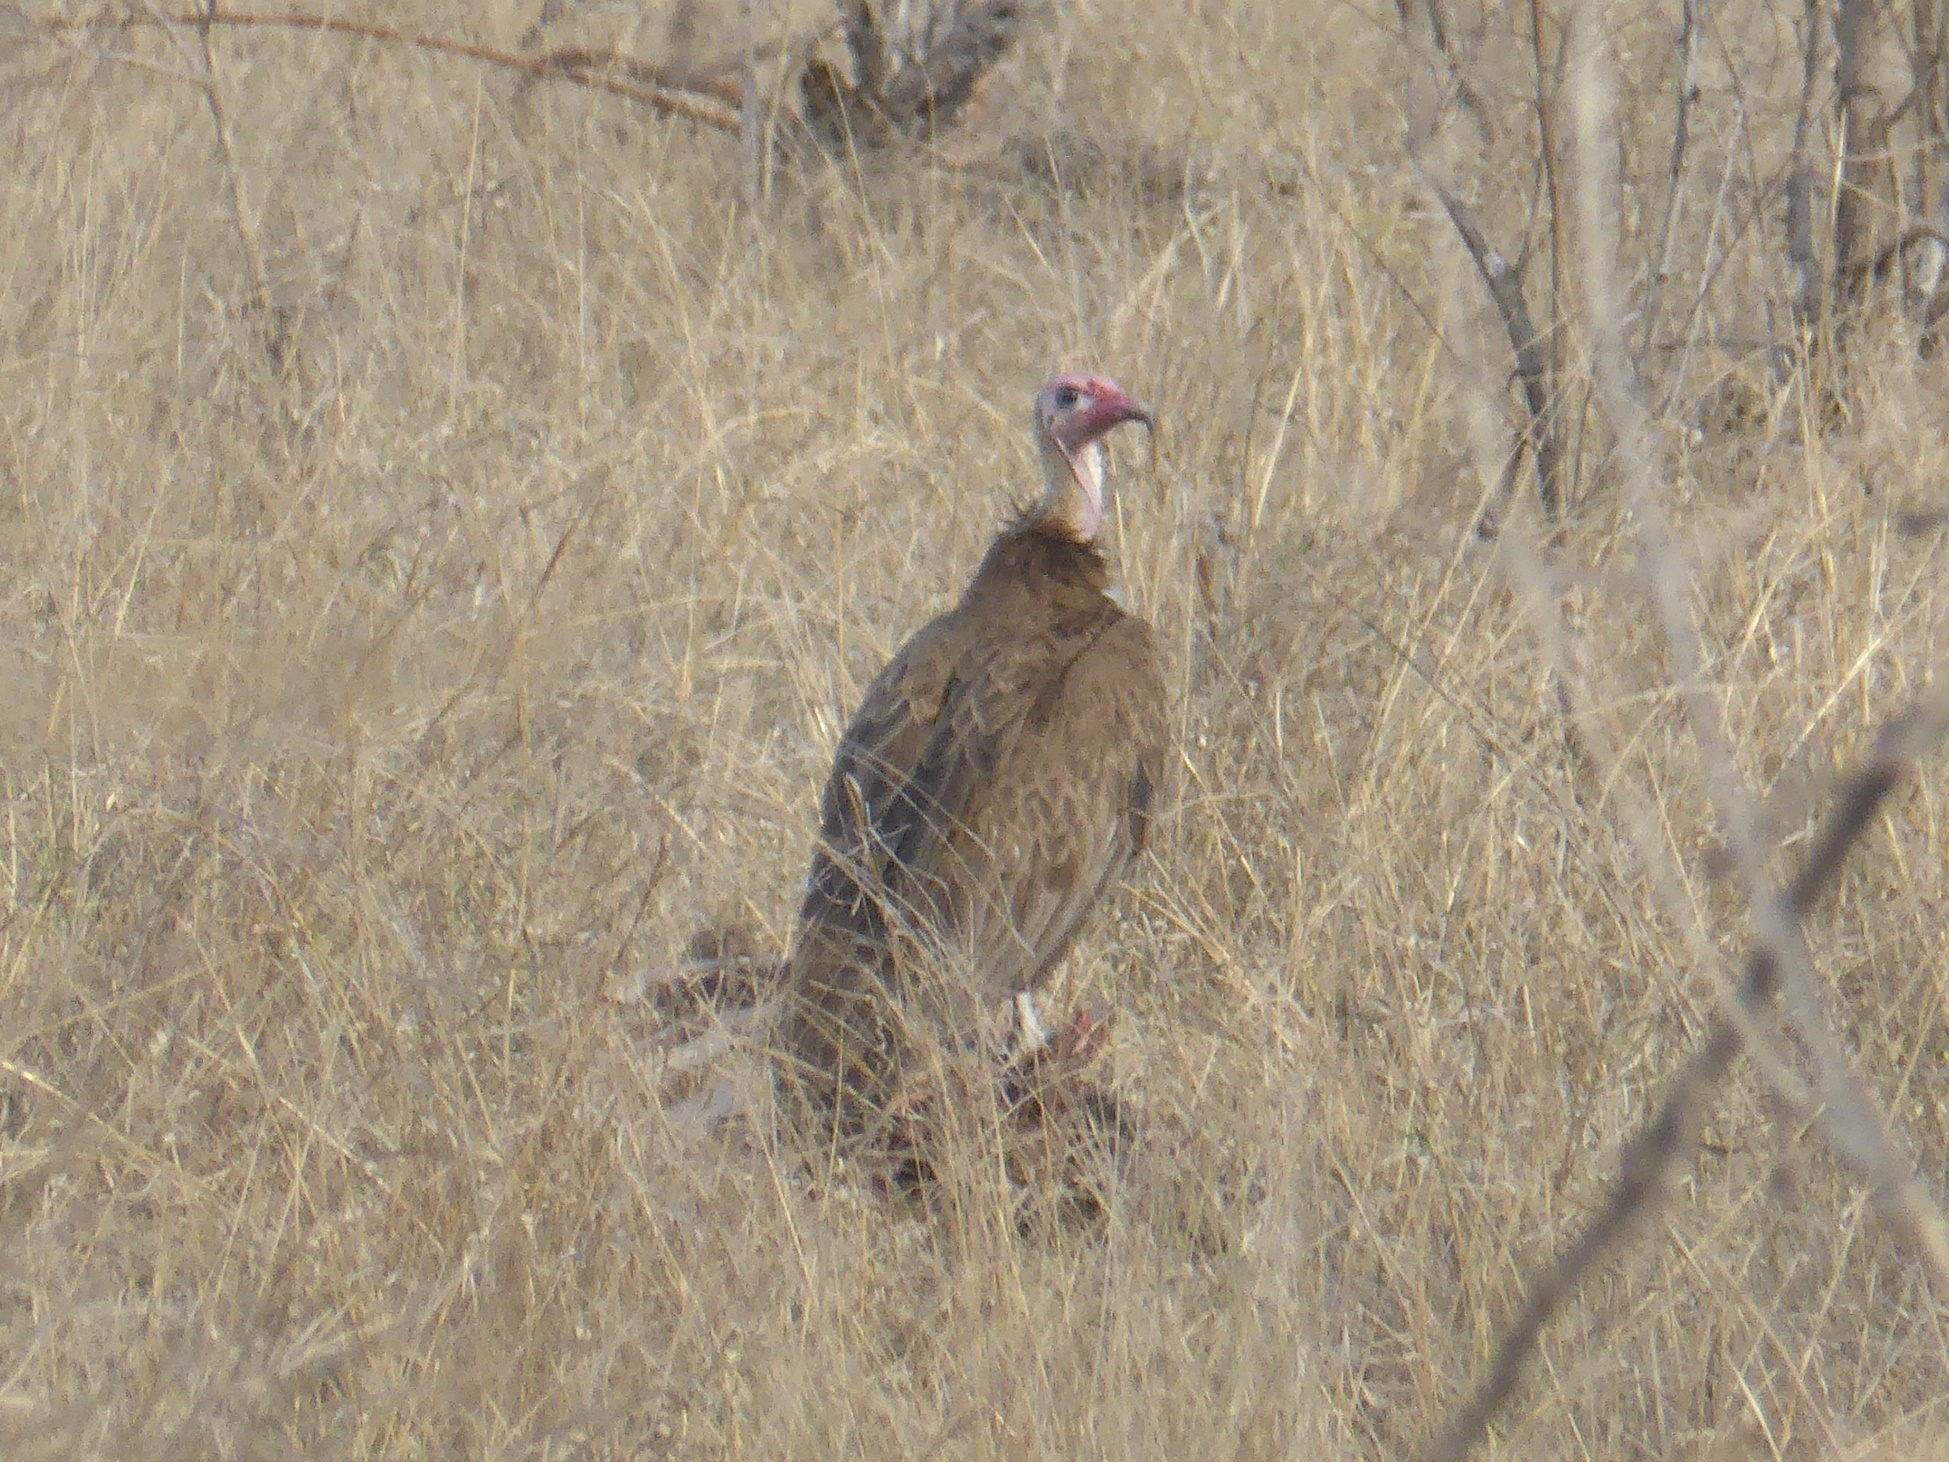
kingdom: Animalia
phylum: Chordata
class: Aves
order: Accipitriformes
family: Accipitridae
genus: Necrosyrtes
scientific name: Necrosyrtes monachus
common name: Hooded vulture
